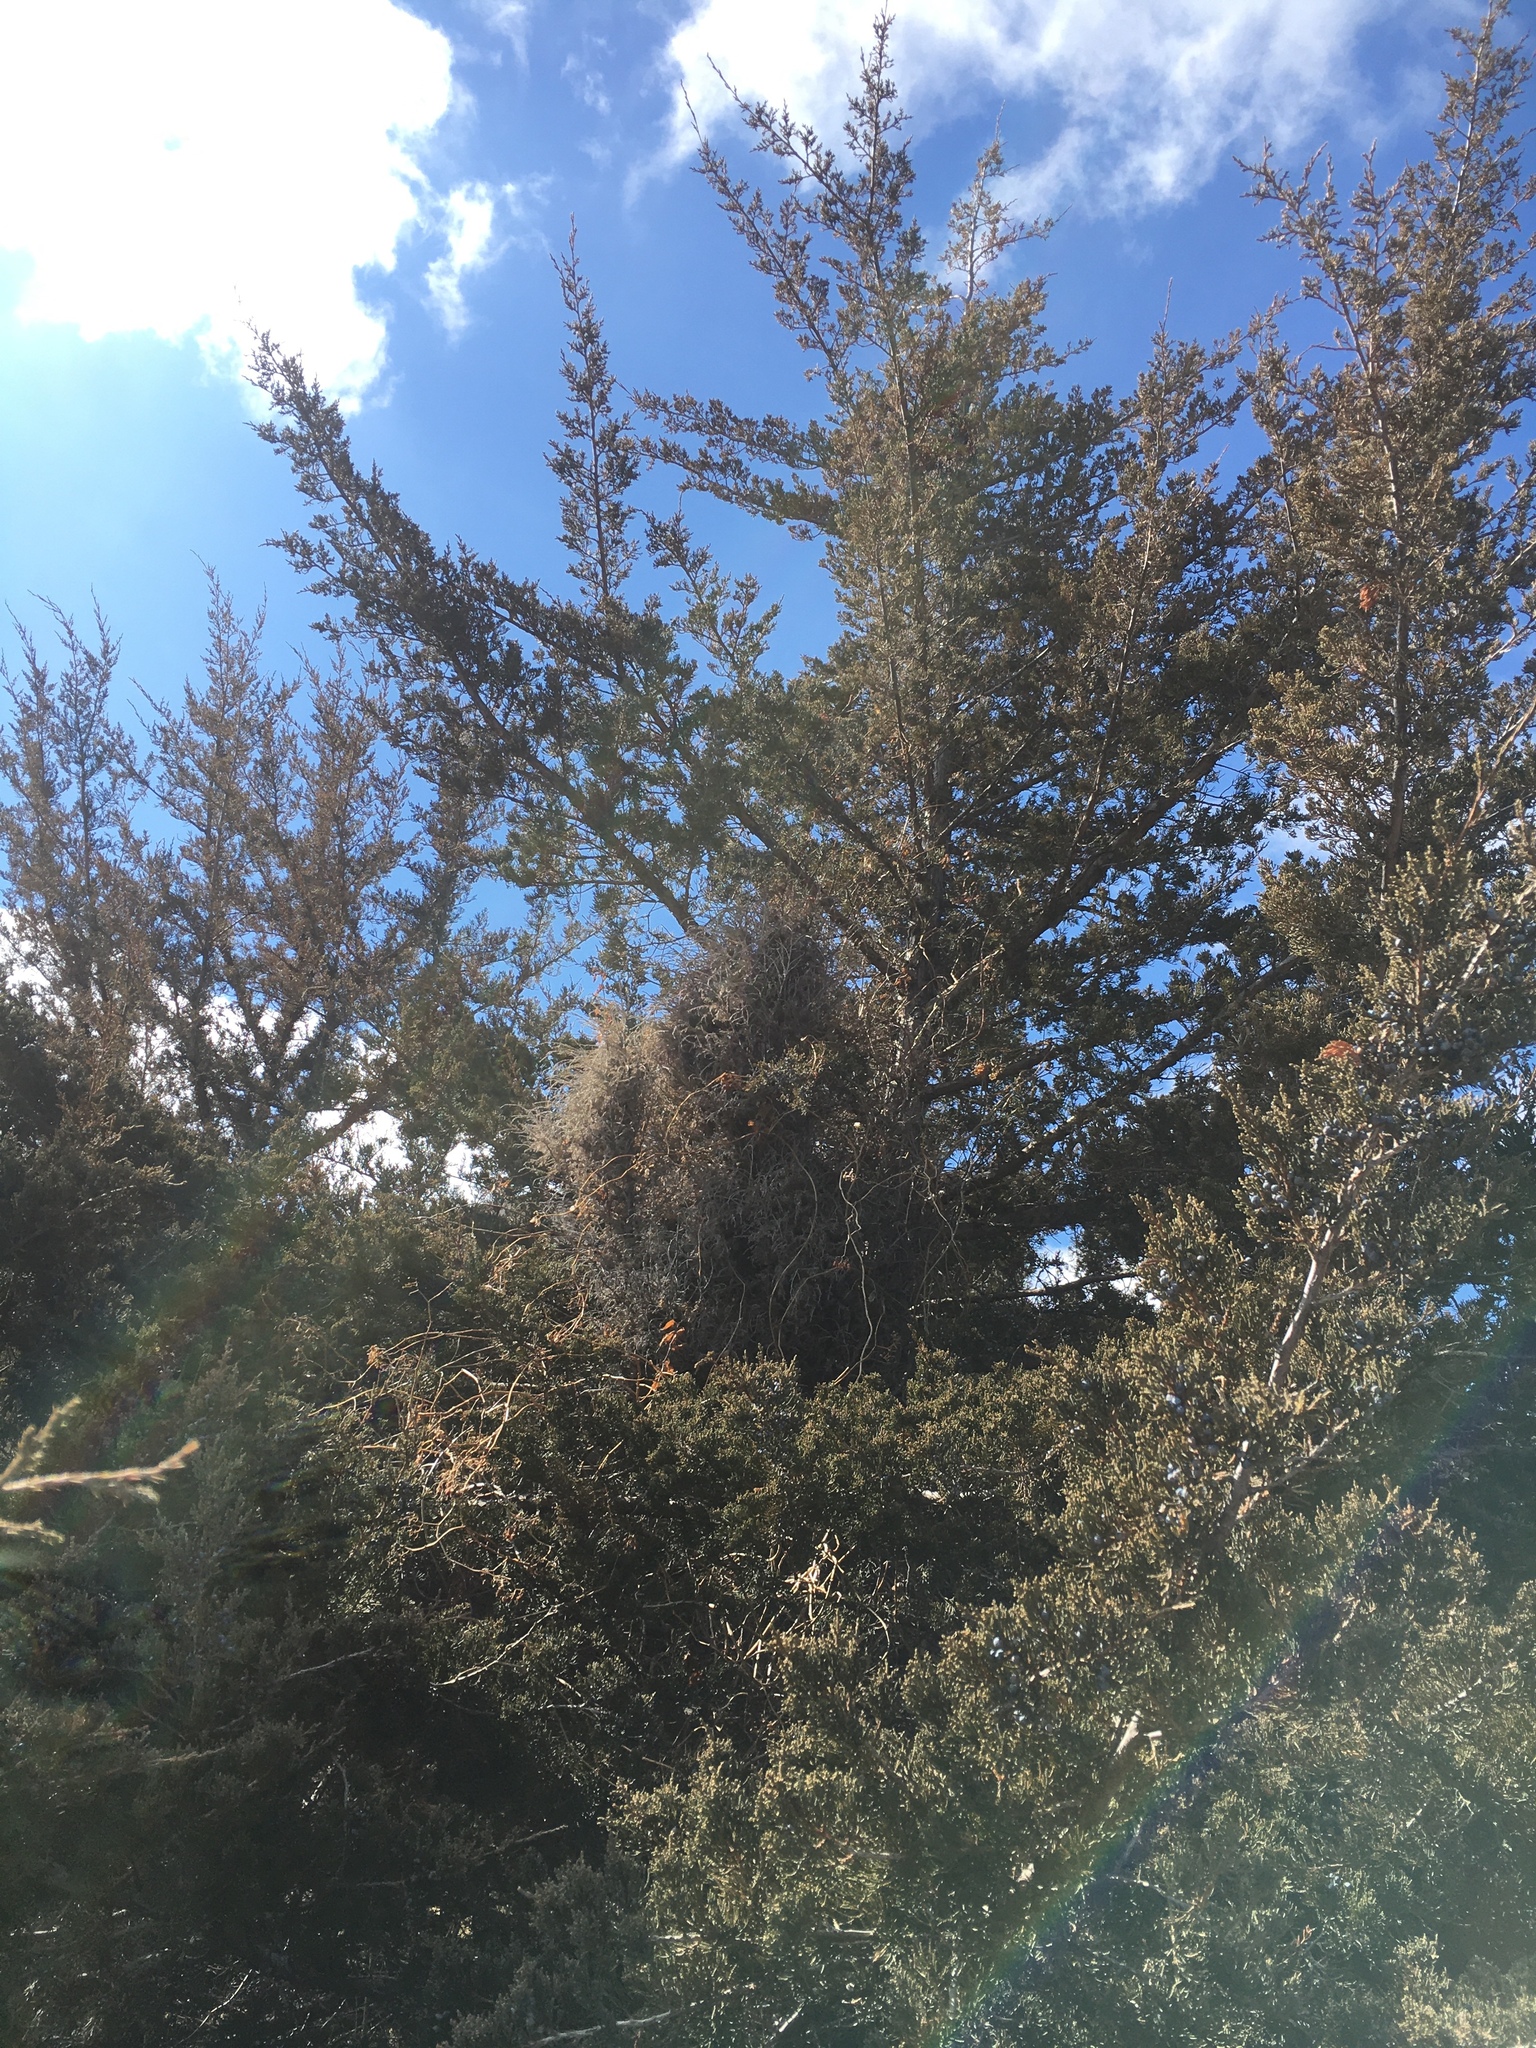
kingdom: Fungi
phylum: Basidiomycota
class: Pucciniomycetes
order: Pucciniales
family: Gymnosporangiaceae
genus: Gymnosporangium
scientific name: Gymnosporangium nidus-avis
